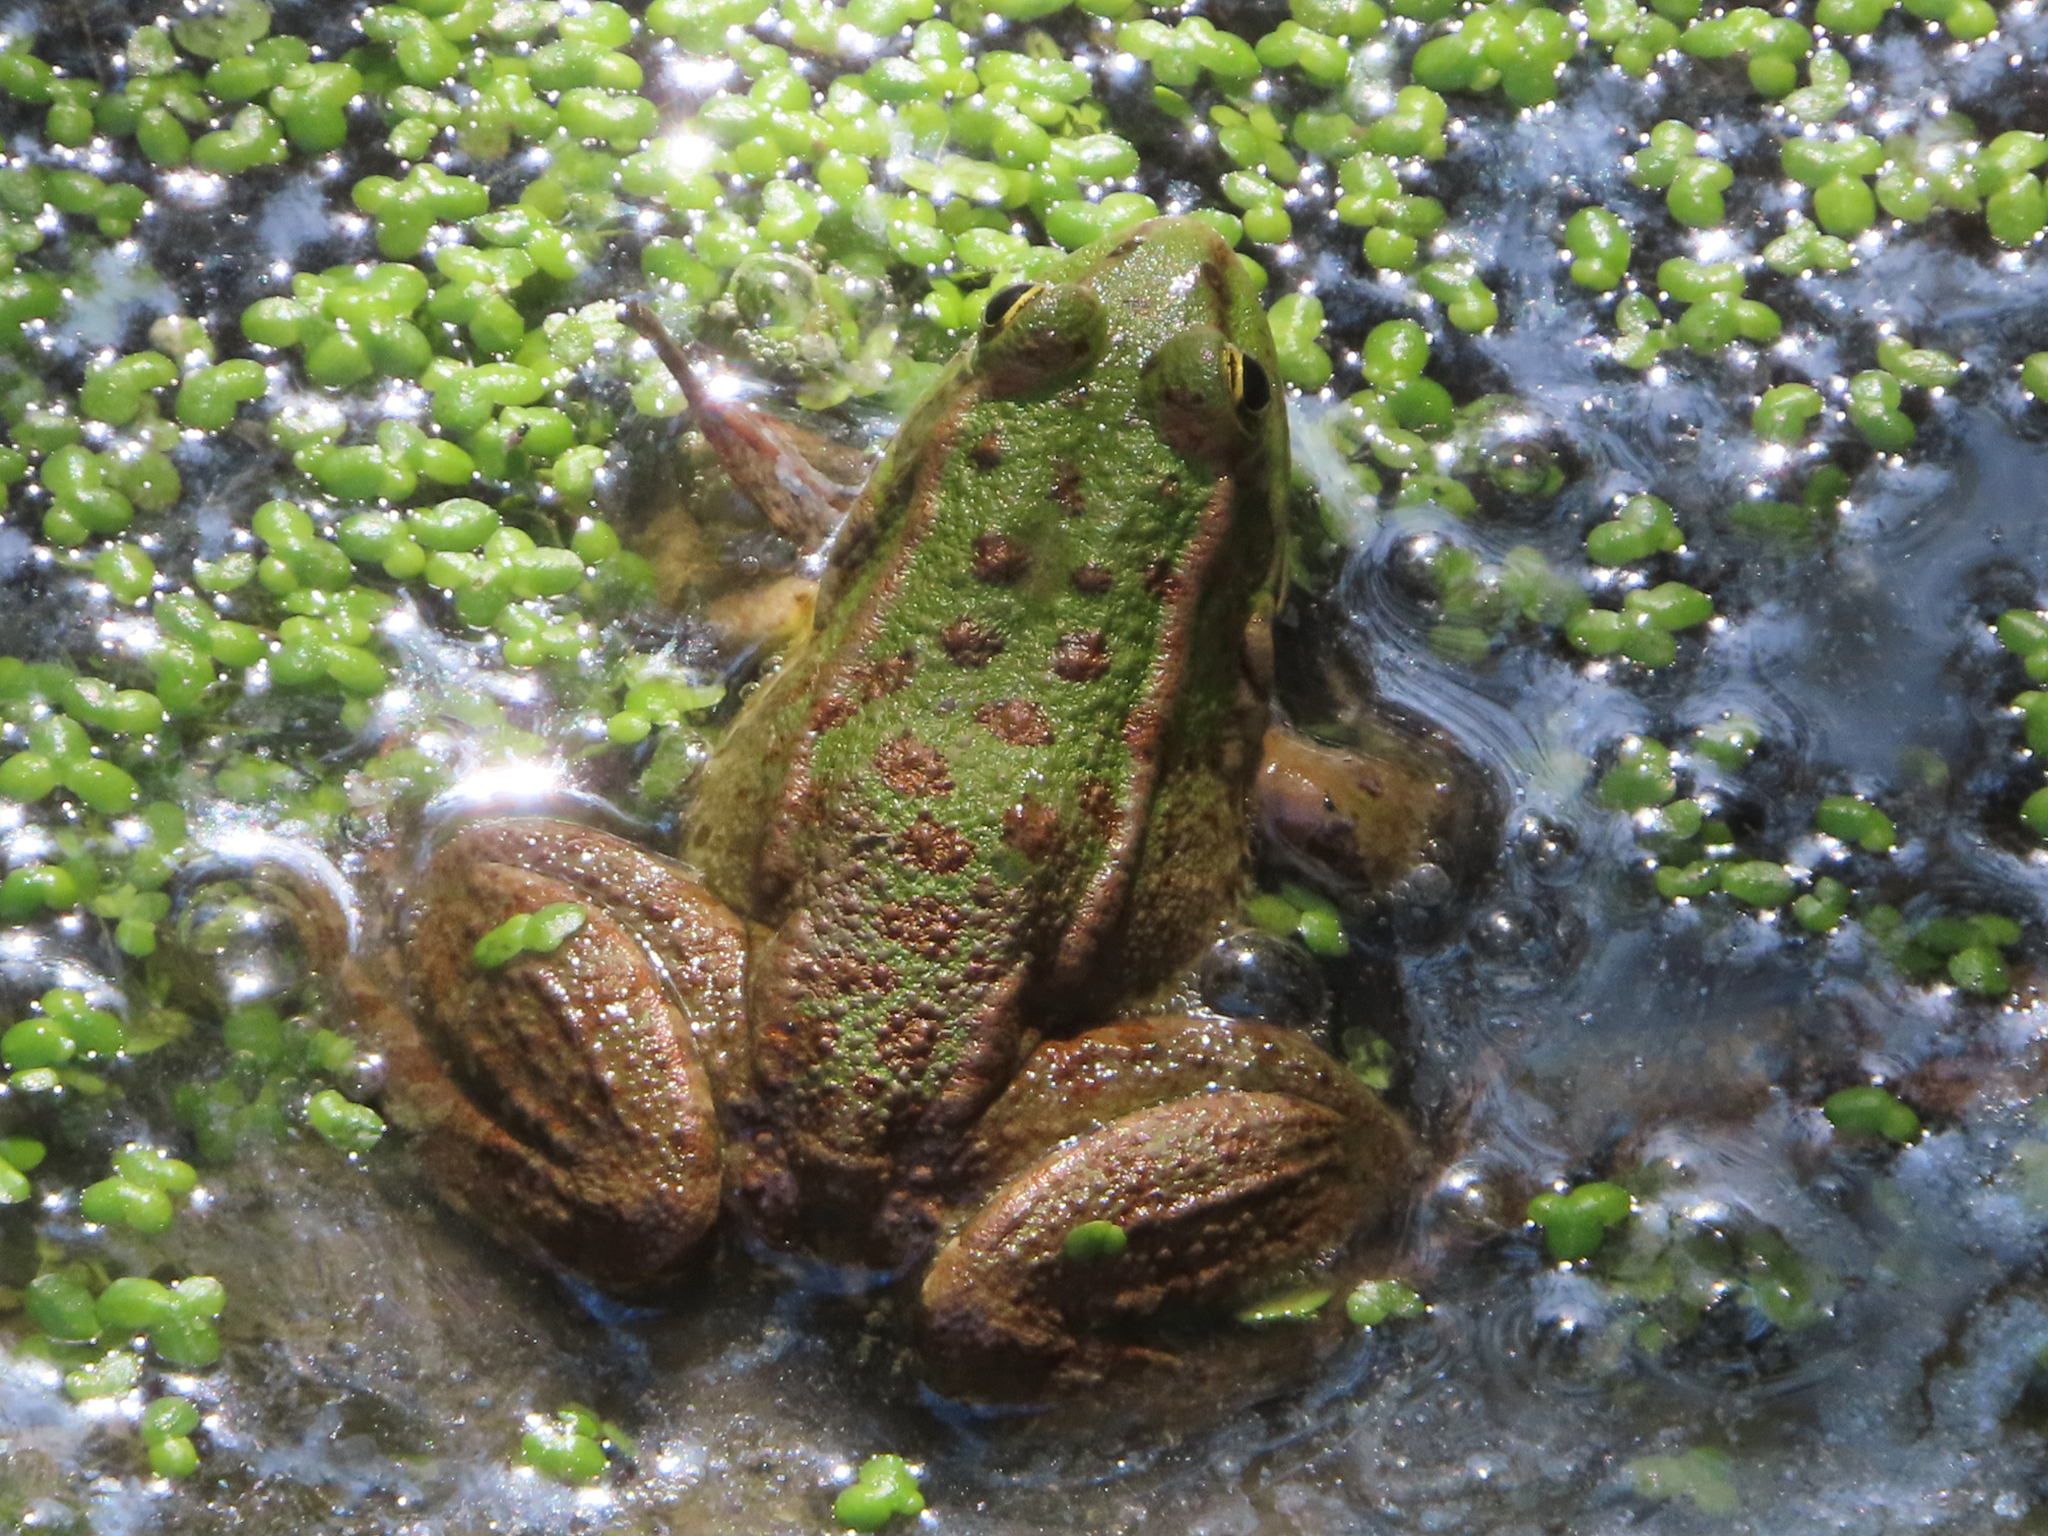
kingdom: Animalia
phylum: Chordata
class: Amphibia
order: Anura
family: Ranidae
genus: Pelophylax
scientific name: Pelophylax ridibundus
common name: Marsh frog
